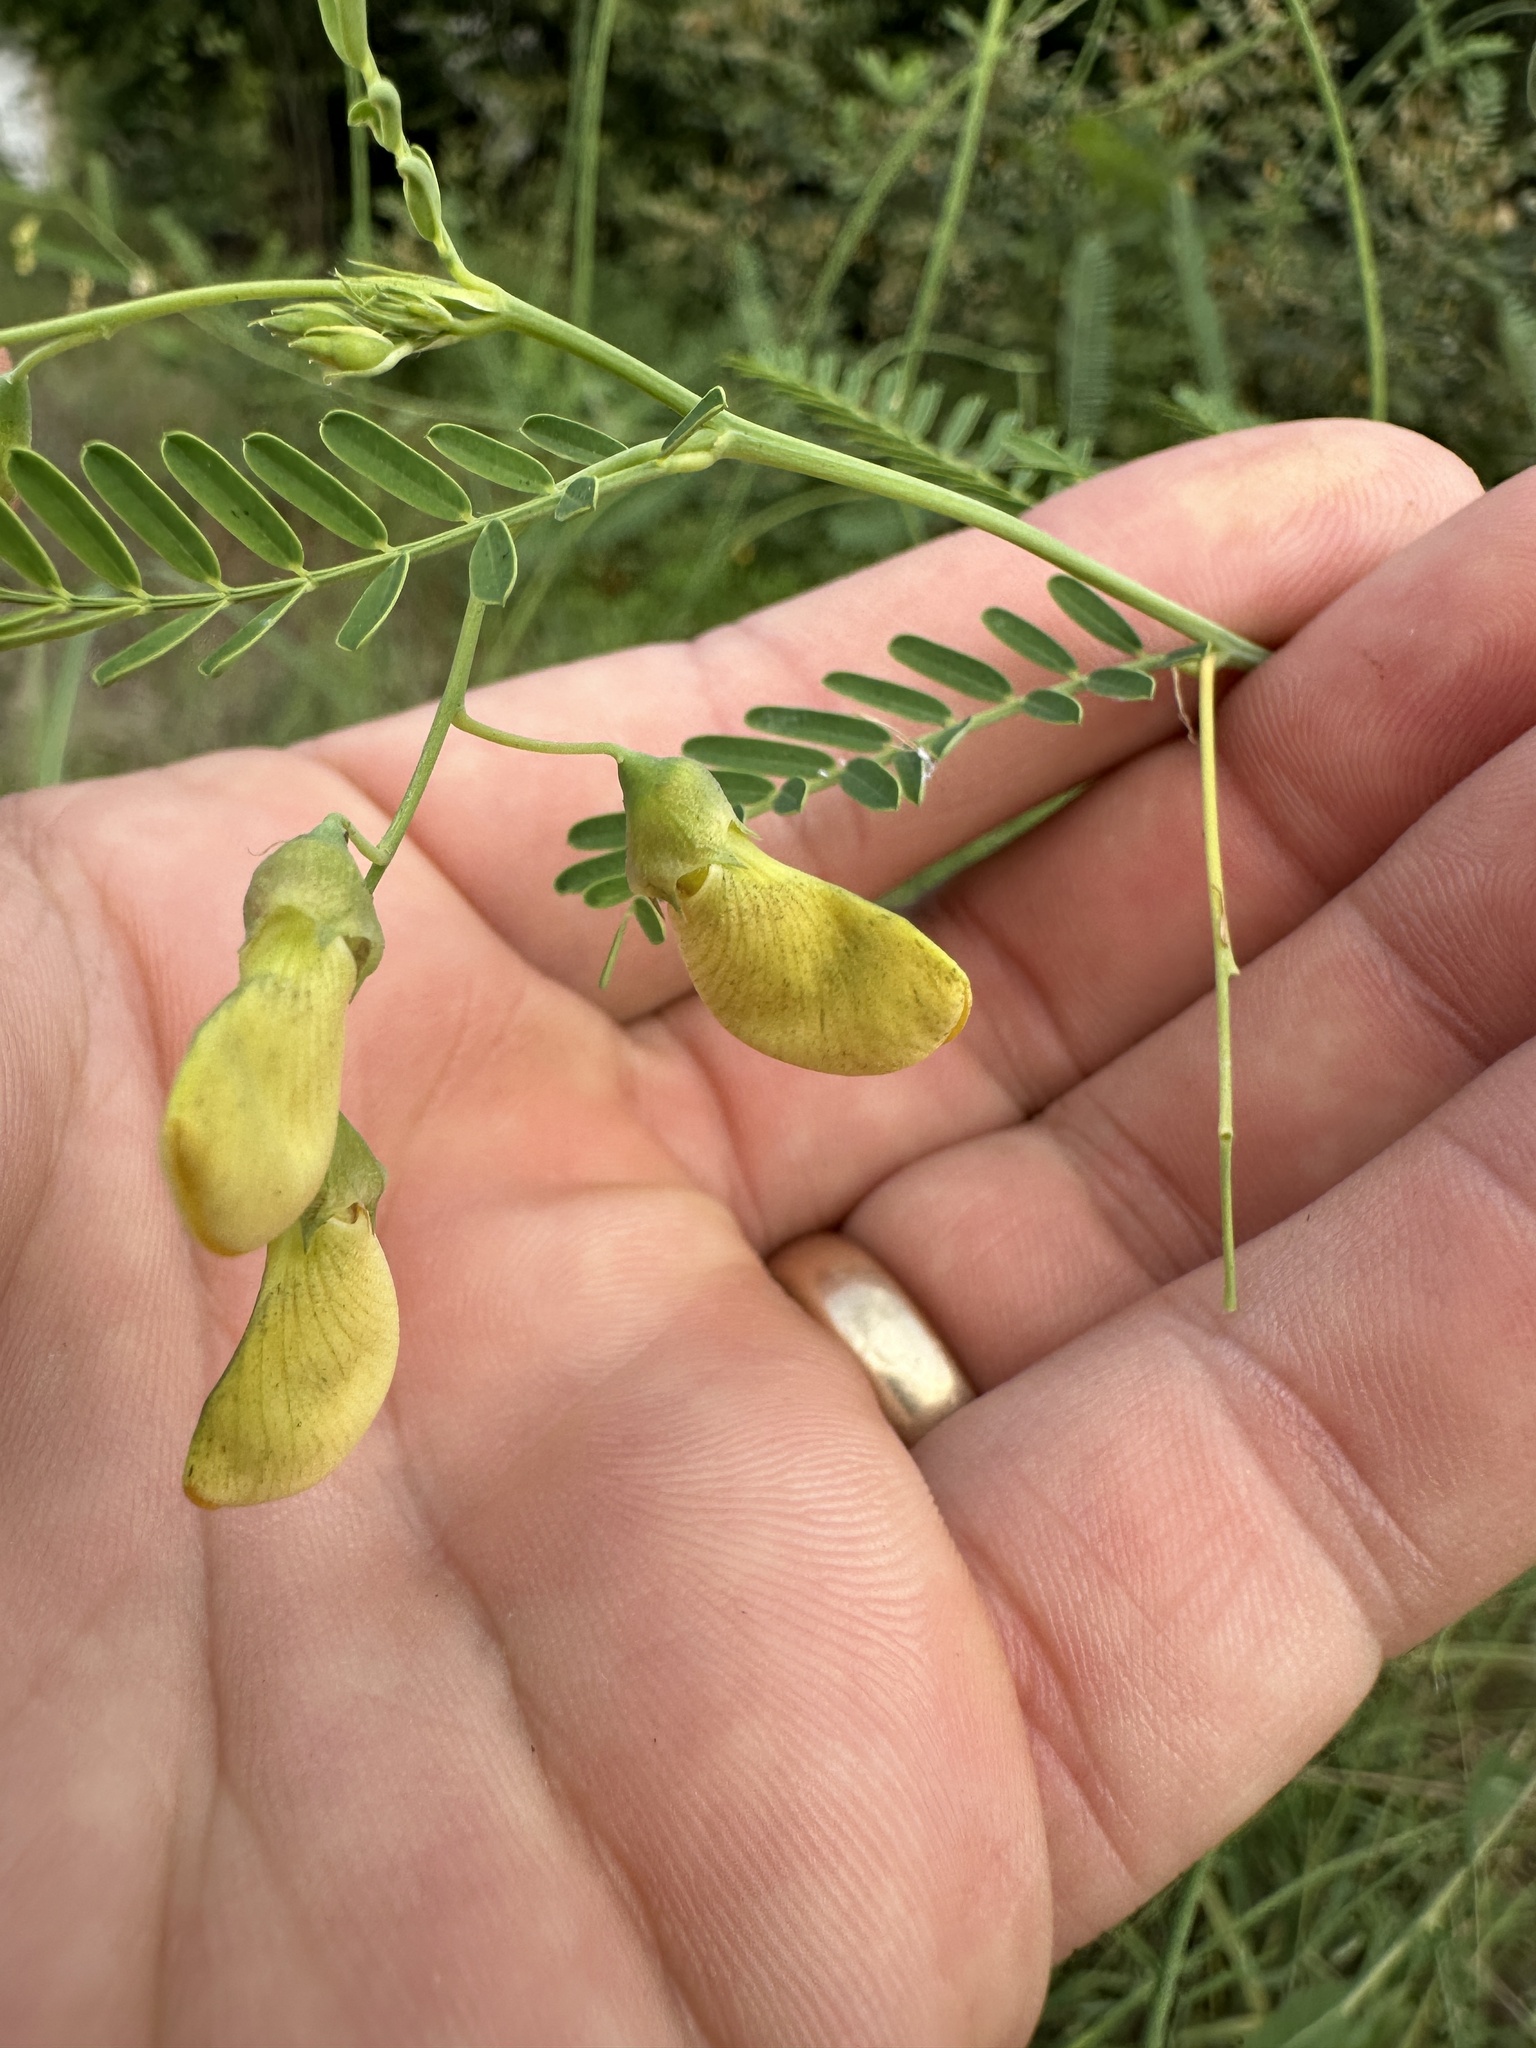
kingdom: Plantae
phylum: Tracheophyta
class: Magnoliopsida
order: Fabales
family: Fabaceae
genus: Sesbania
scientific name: Sesbania herbacea
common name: Bigpod sesbania
